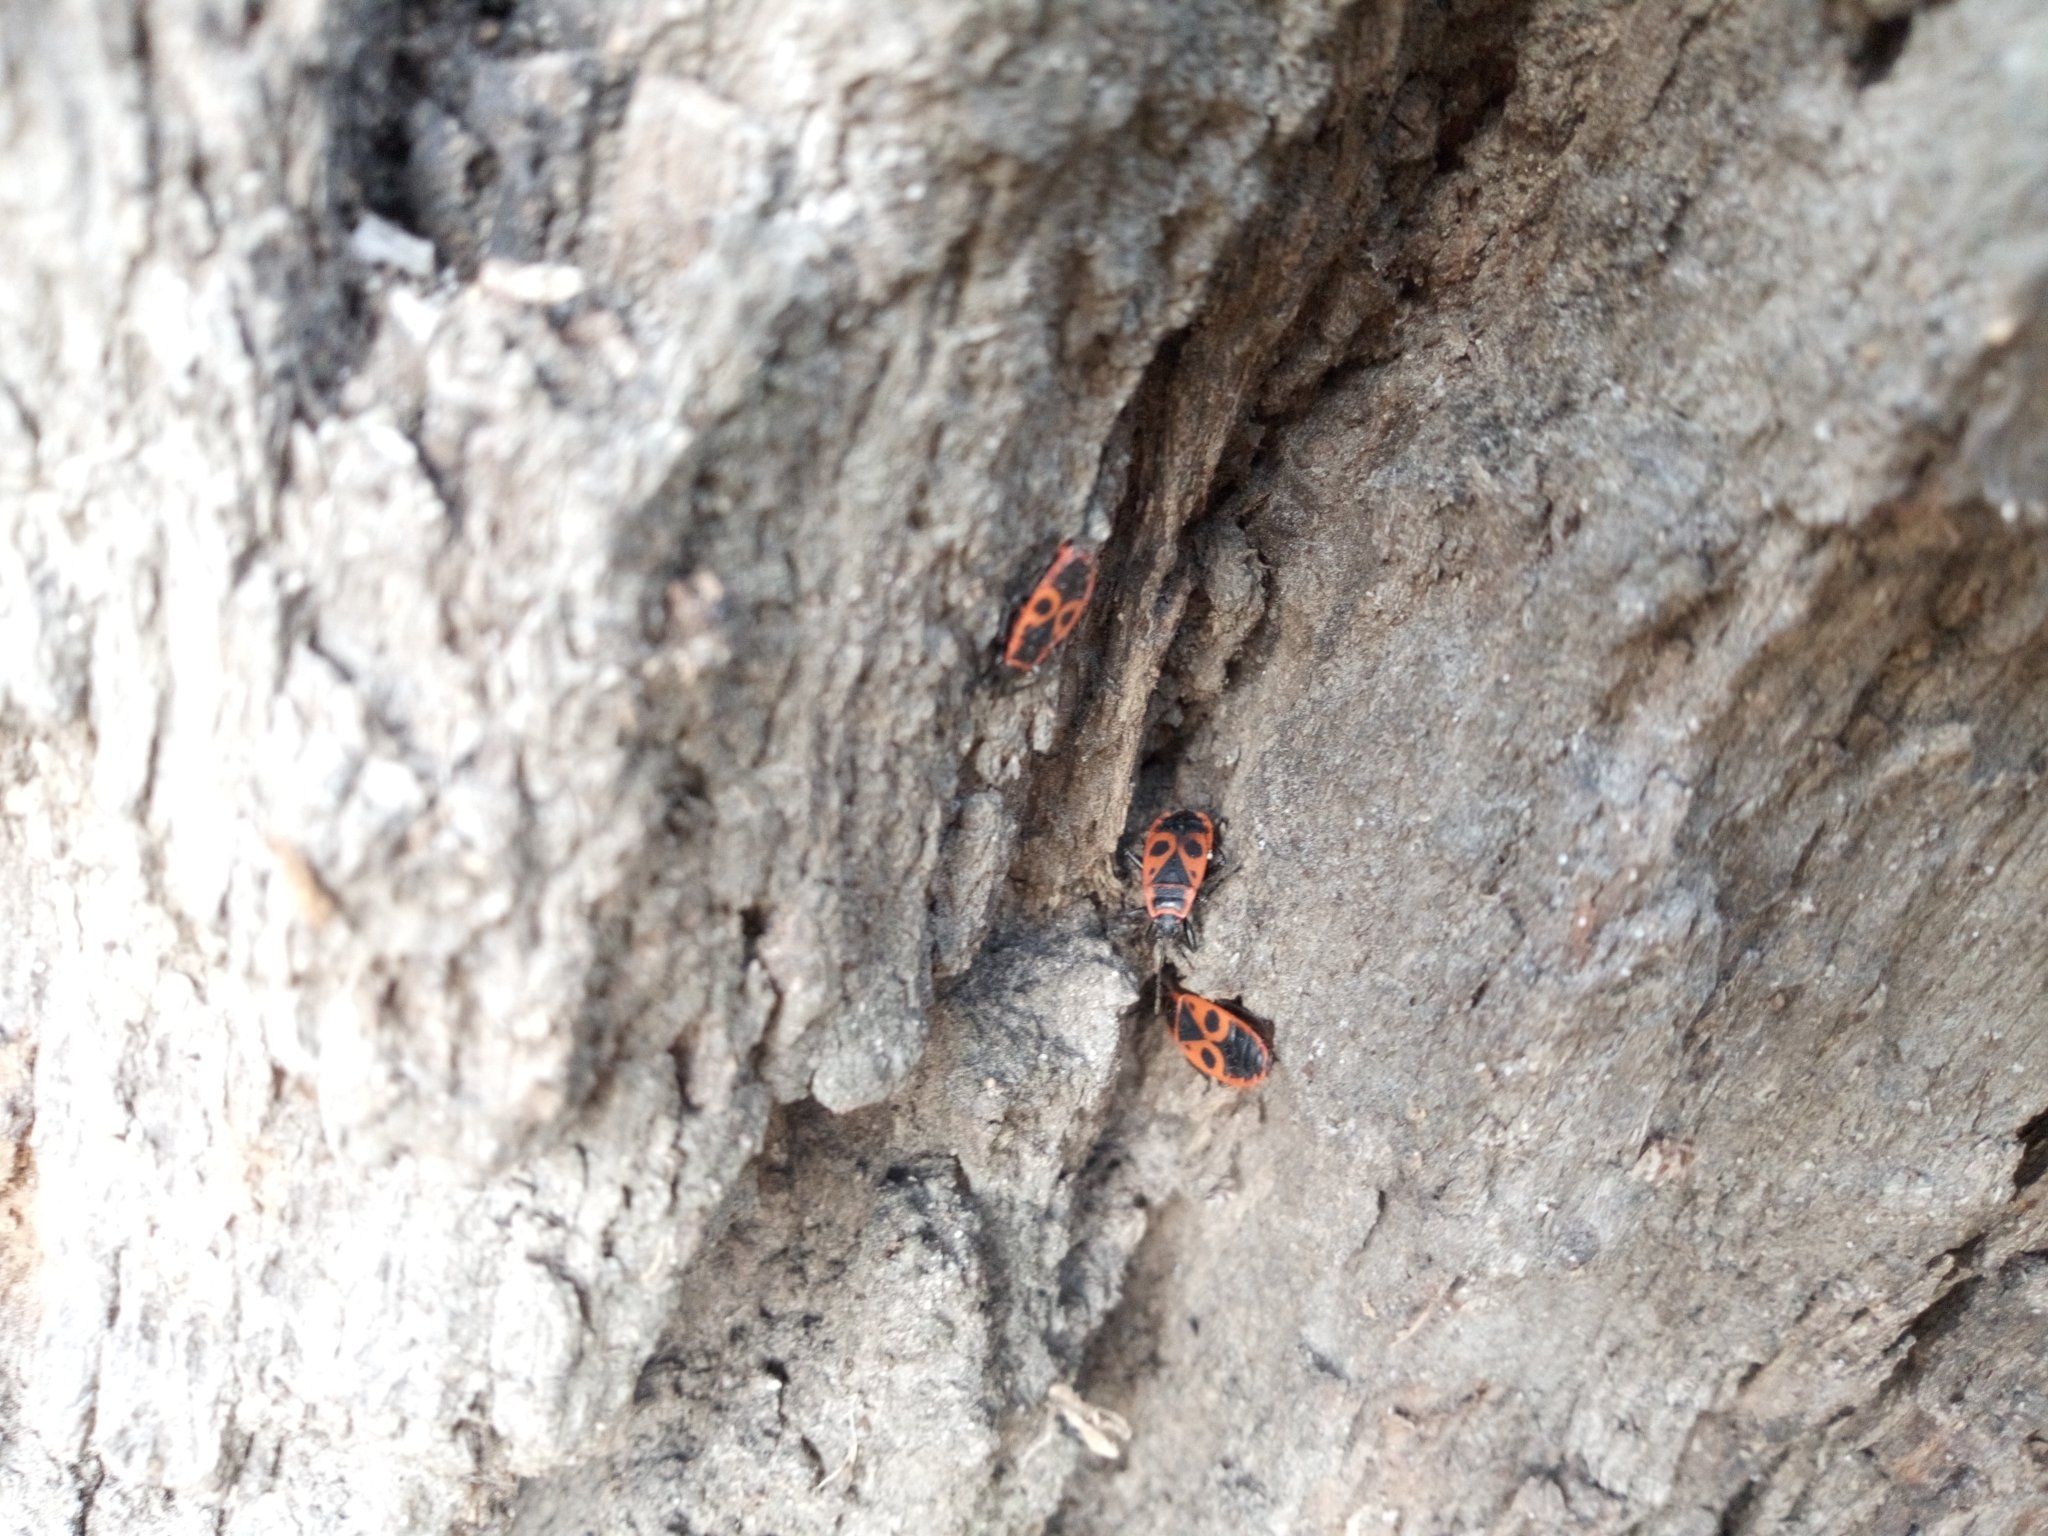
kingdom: Animalia
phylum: Arthropoda
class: Insecta
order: Hemiptera
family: Pyrrhocoridae
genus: Pyrrhocoris
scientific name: Pyrrhocoris apterus
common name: Firebug
